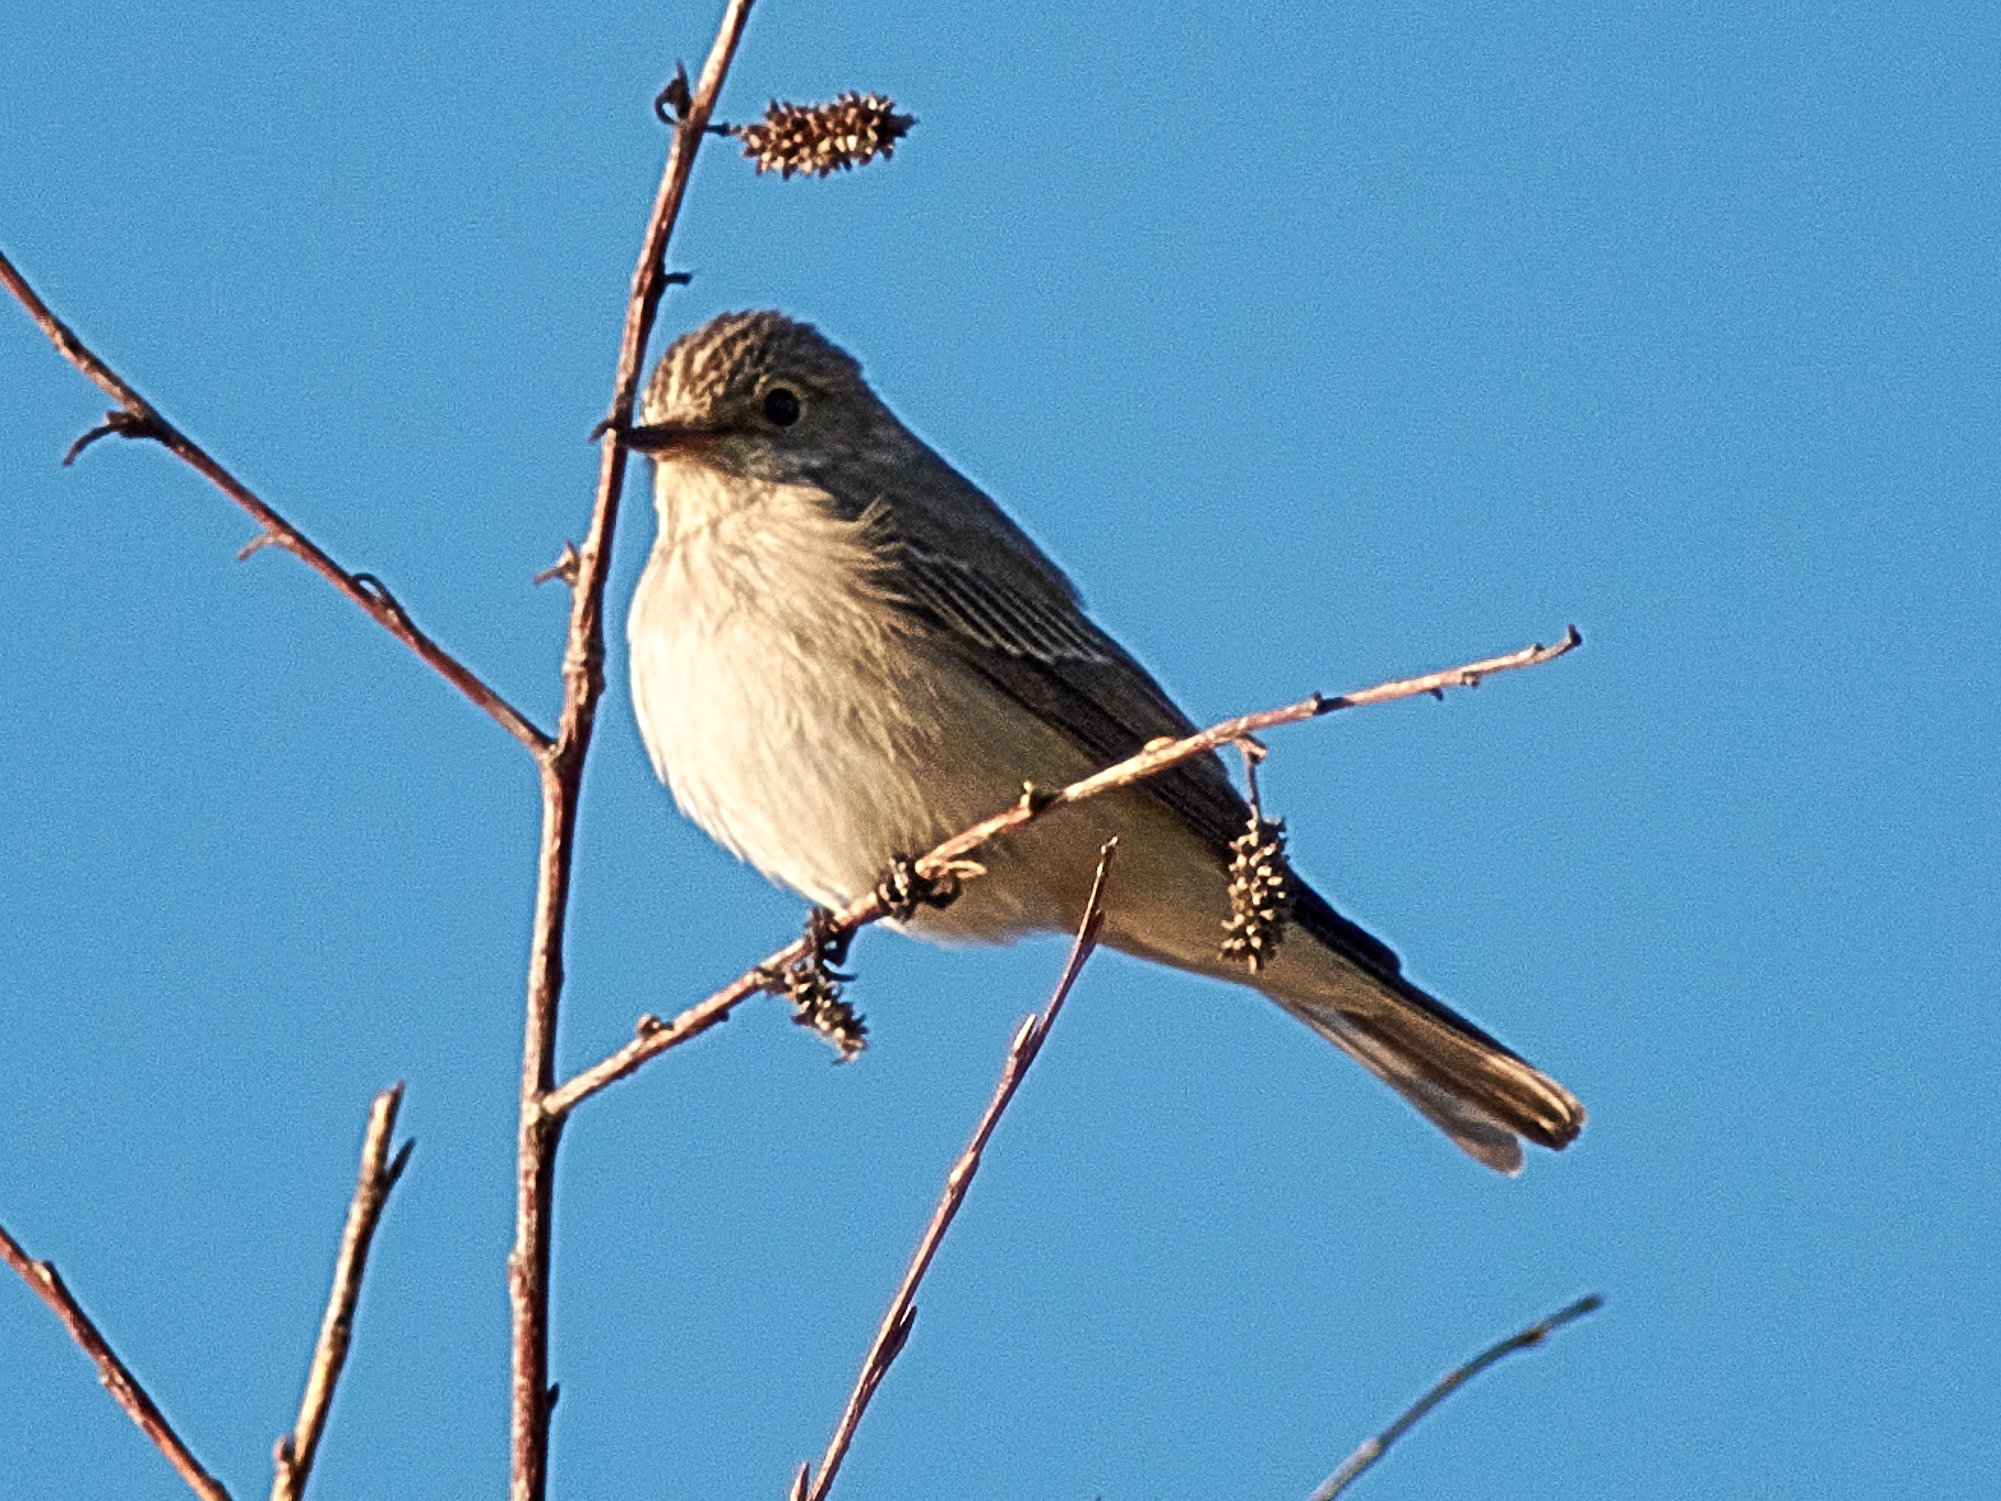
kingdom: Animalia
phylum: Chordata
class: Aves
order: Passeriformes
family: Muscicapidae
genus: Muscicapa
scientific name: Muscicapa striata
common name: Spotted flycatcher
